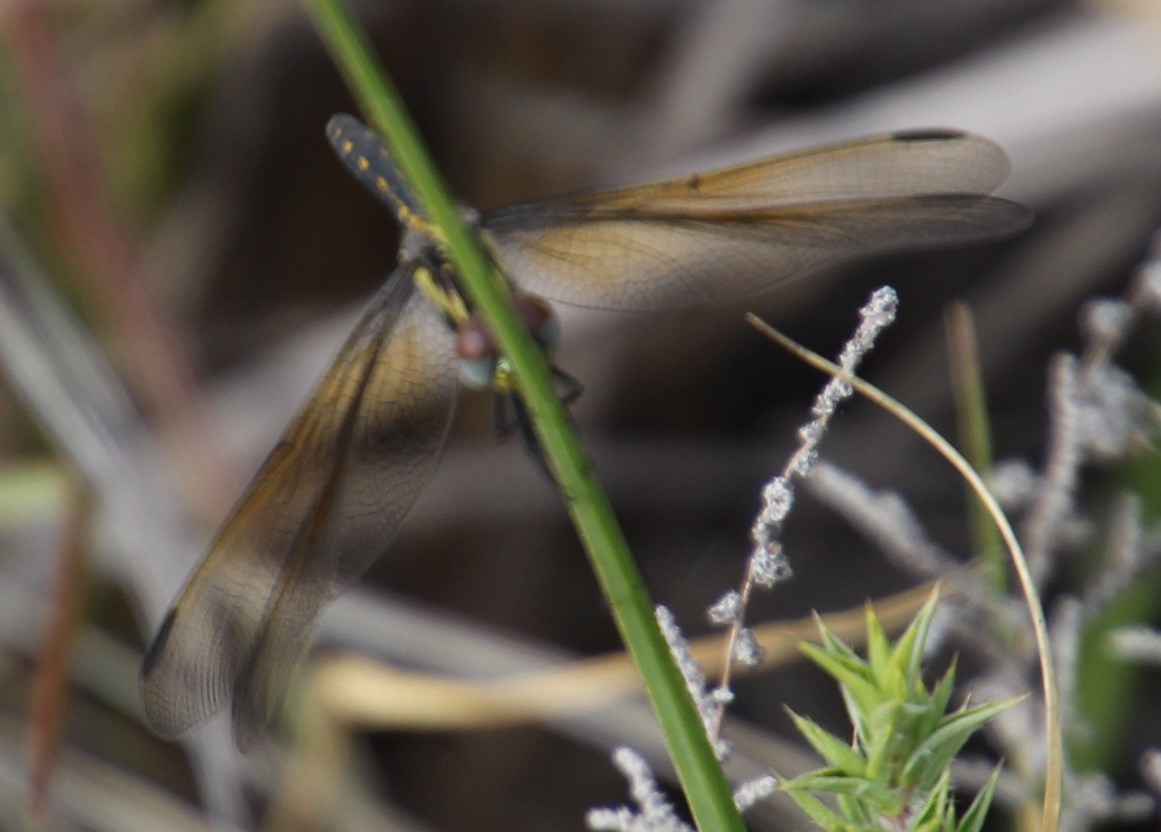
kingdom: Animalia
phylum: Arthropoda
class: Insecta
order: Odonata
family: Libellulidae
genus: Trithemis
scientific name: Trithemis stictica
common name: Jaunty dropwing
